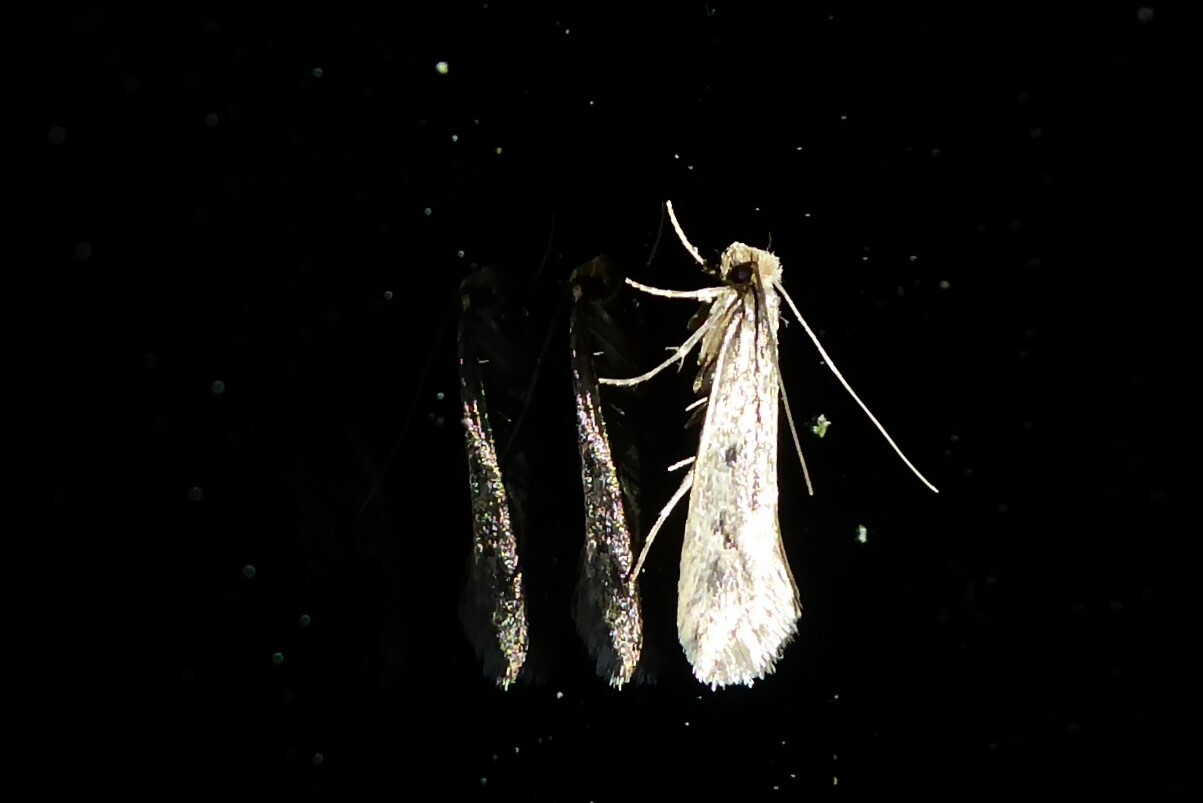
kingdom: Animalia
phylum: Arthropoda
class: Insecta
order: Lepidoptera
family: Tineidae
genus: Tinea
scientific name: Tinea pallescentella
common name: Large pale clothes moth
